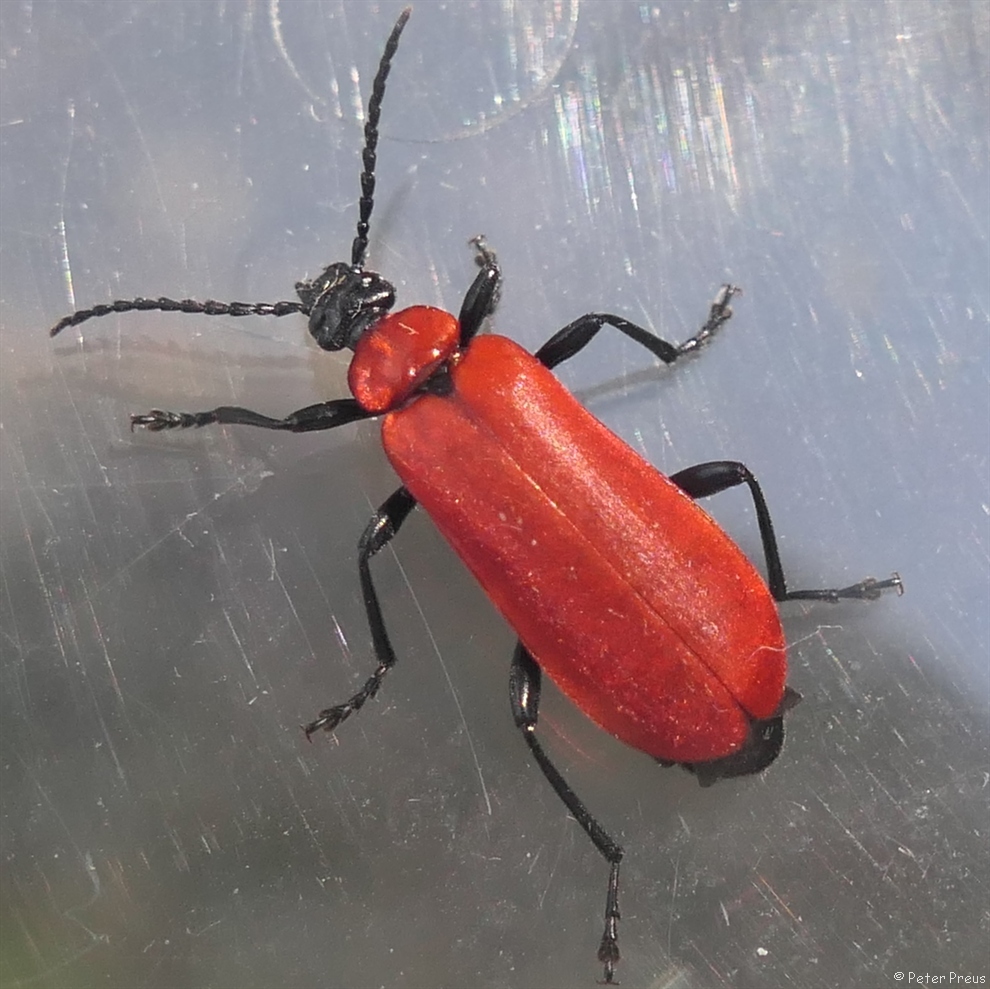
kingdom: Animalia
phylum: Arthropoda
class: Insecta
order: Coleoptera
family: Pyrochroidae
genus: Pyrochroa
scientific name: Pyrochroa coccinea
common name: Black-headed cardinal beetle
